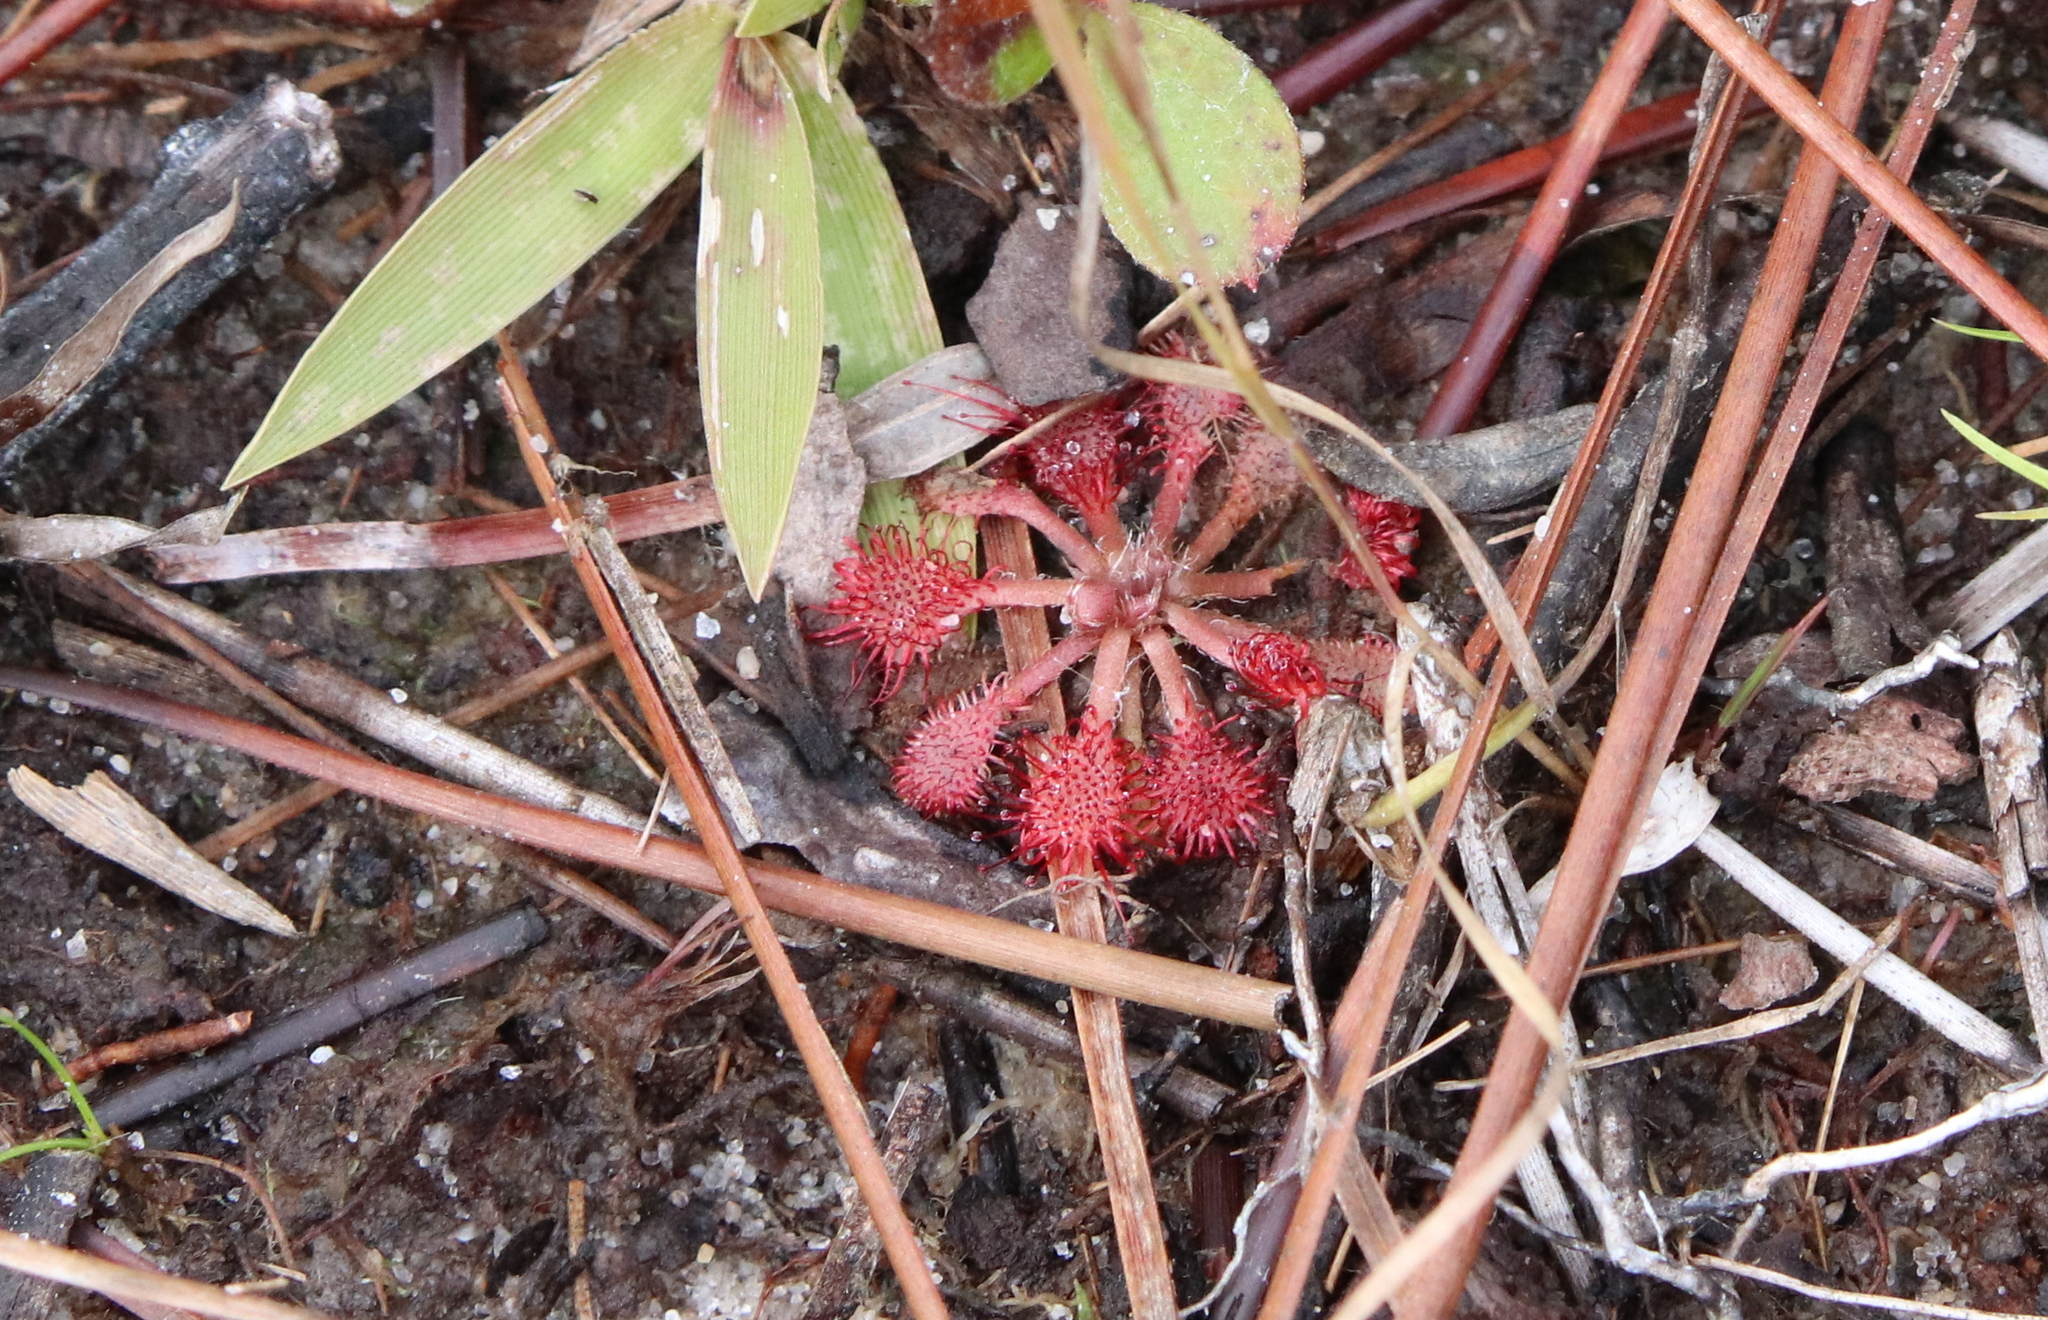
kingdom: Plantae
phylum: Tracheophyta
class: Magnoliopsida
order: Caryophyllales
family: Droseraceae
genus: Drosera
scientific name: Drosera capillaris
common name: Pink sundew
